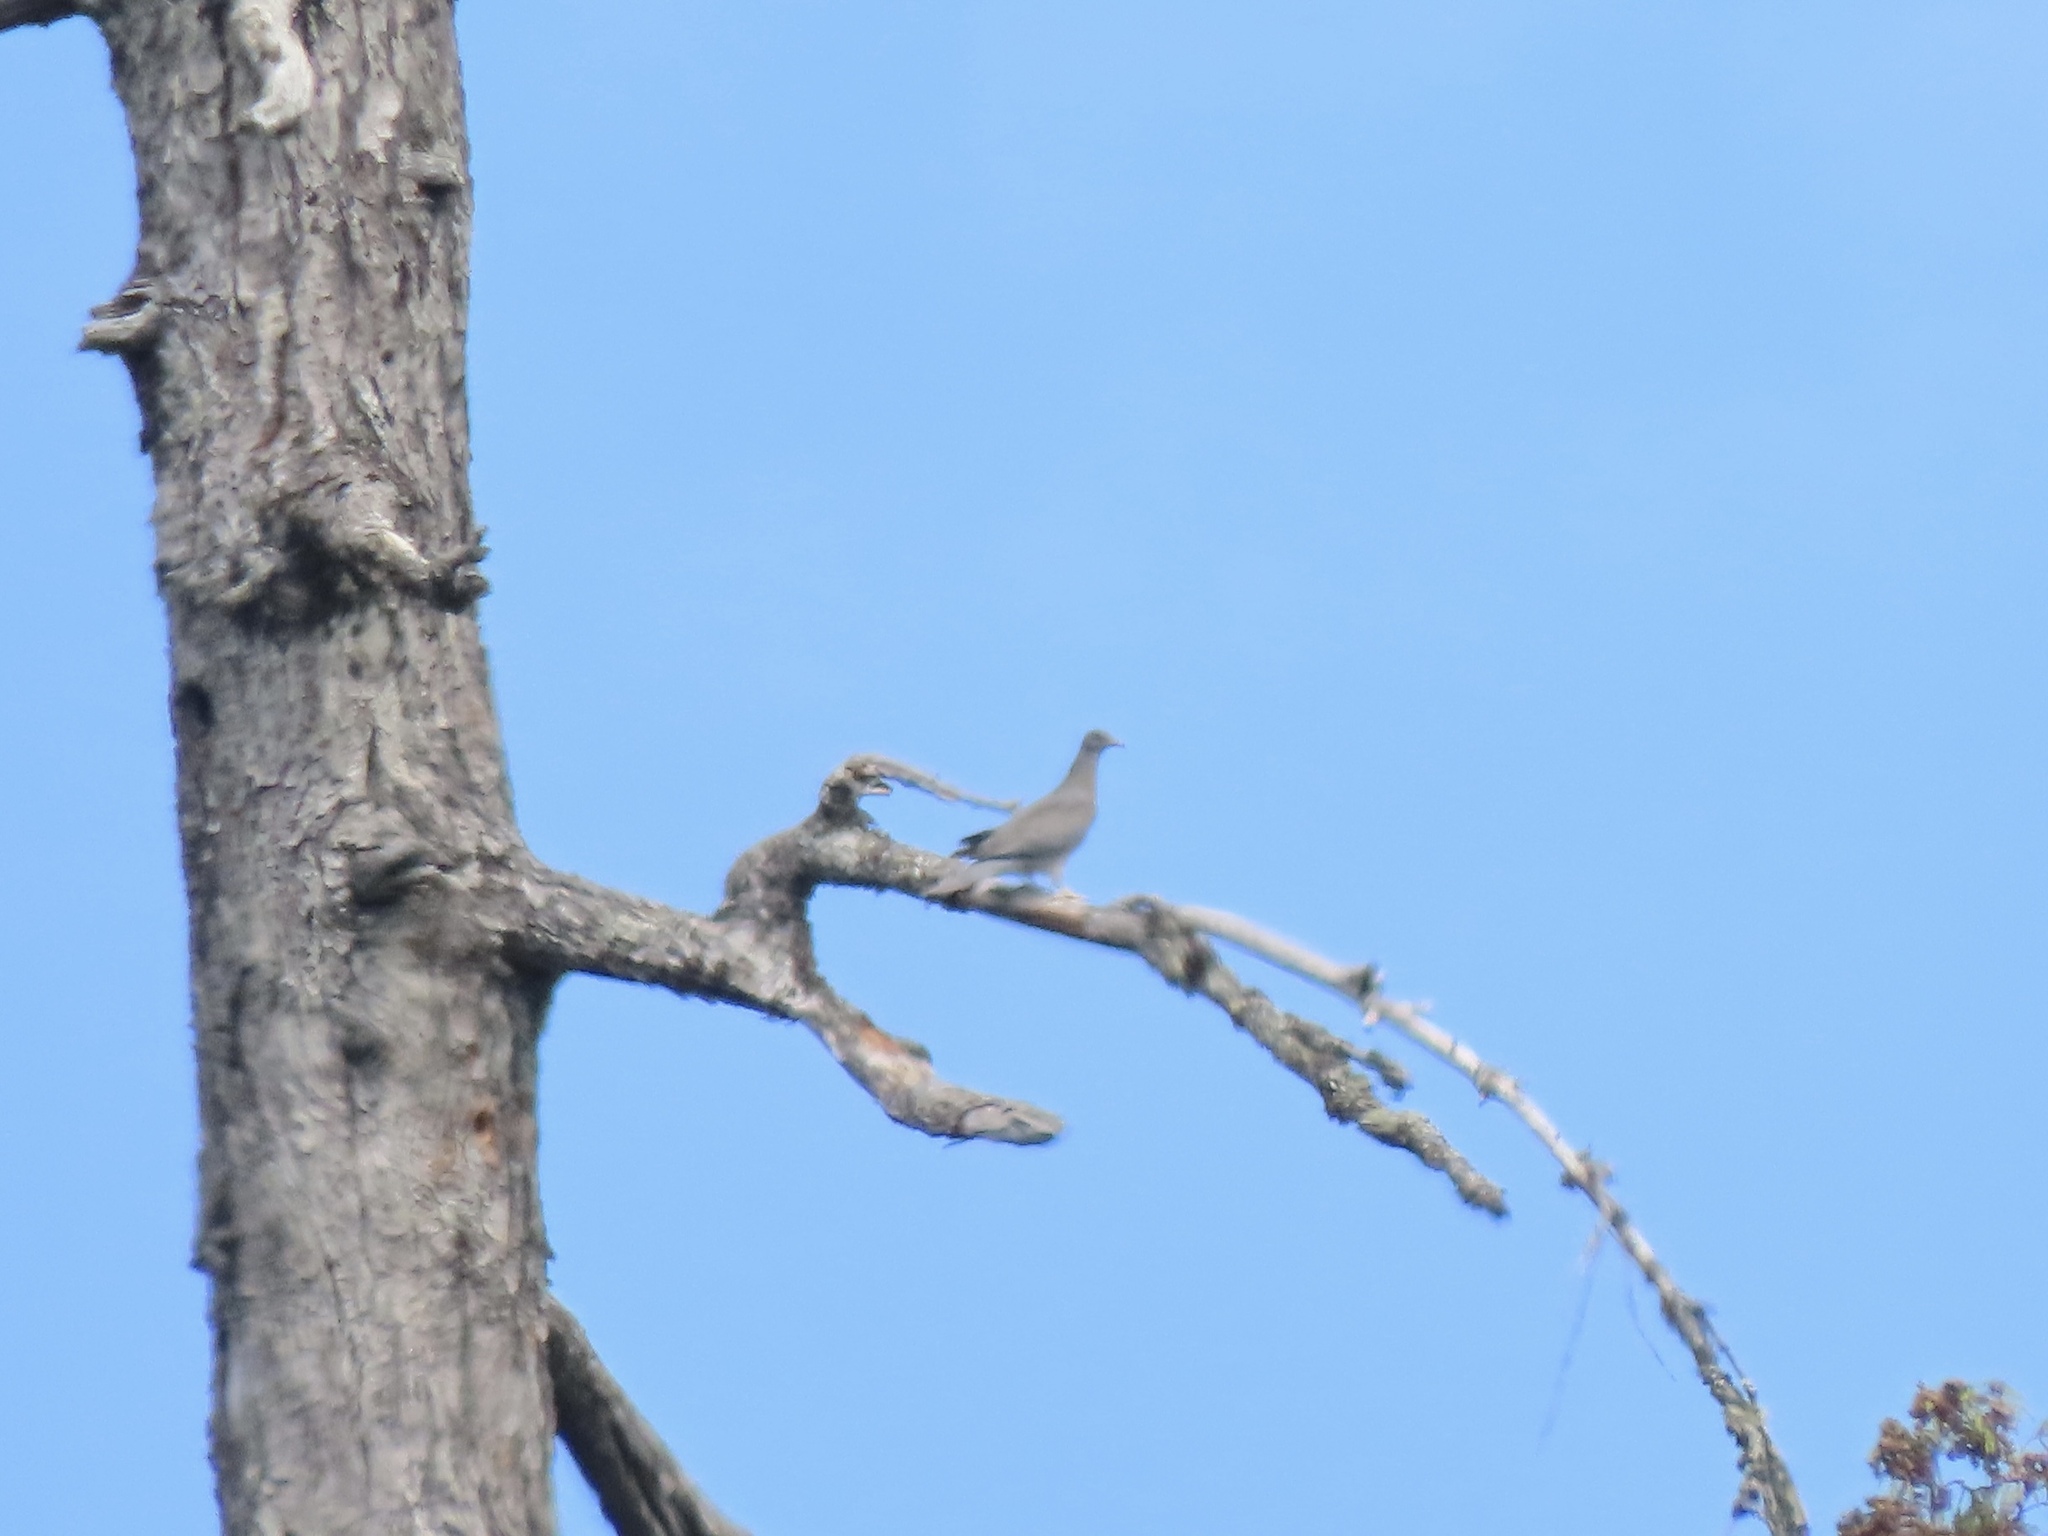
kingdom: Animalia
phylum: Chordata
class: Aves
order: Columbiformes
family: Columbidae
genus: Patagioenas
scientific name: Patagioenas fasciata
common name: Band-tailed pigeon
